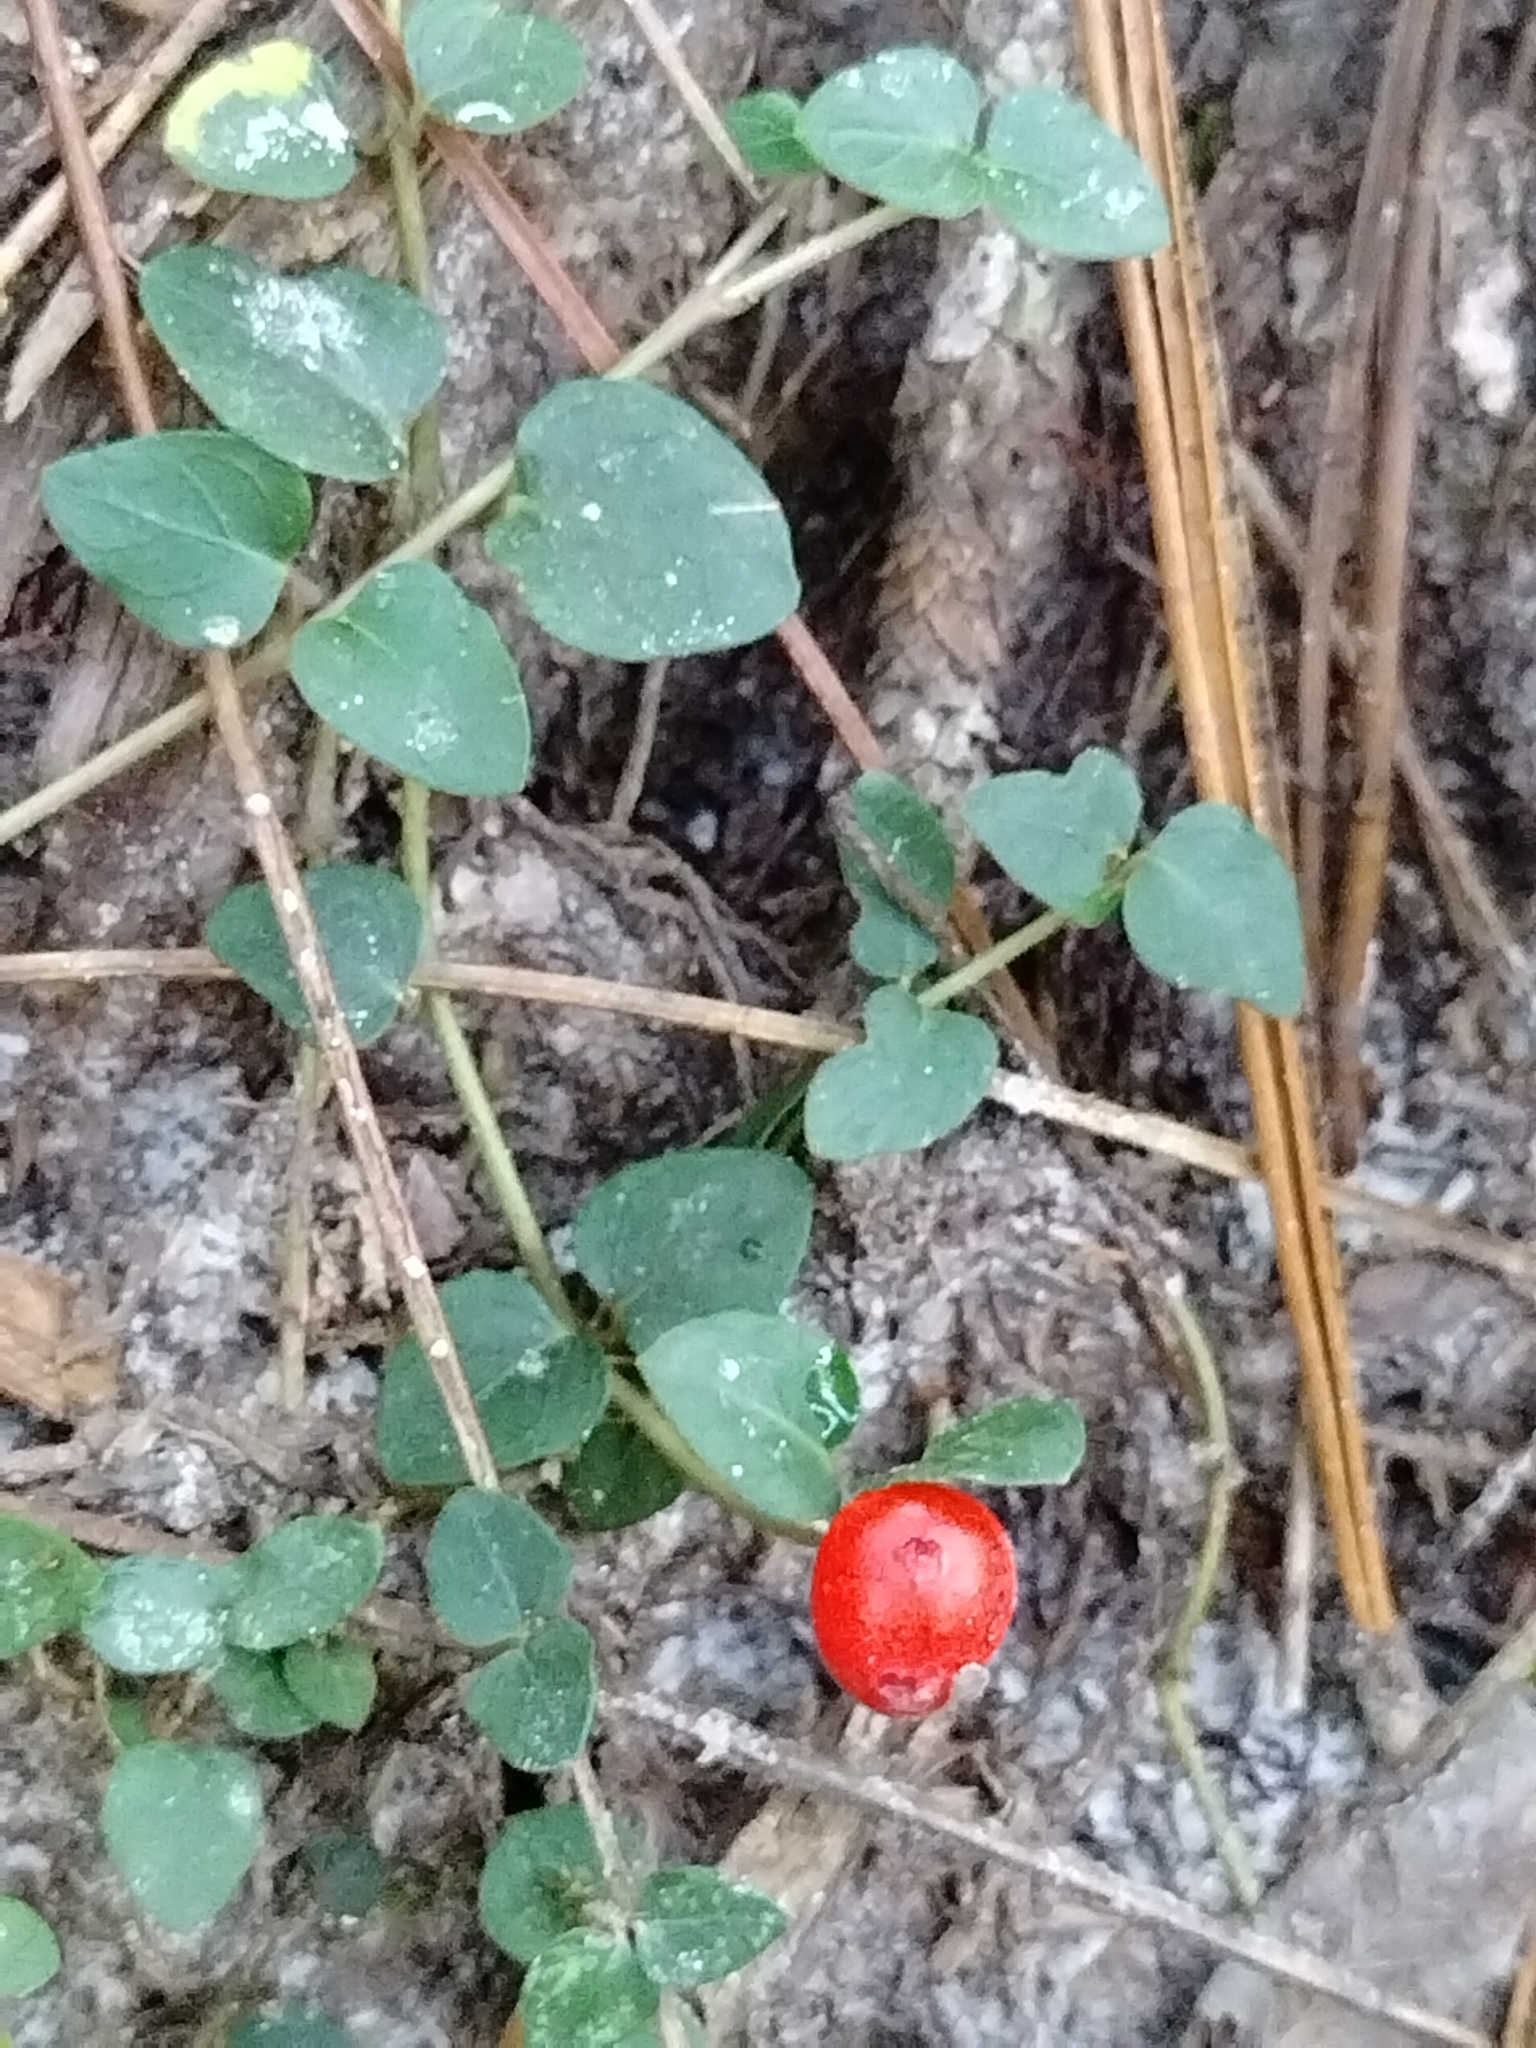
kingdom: Plantae
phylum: Tracheophyta
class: Magnoliopsida
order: Gentianales
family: Rubiaceae
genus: Mitchella
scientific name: Mitchella repens
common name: Partridge-berry
